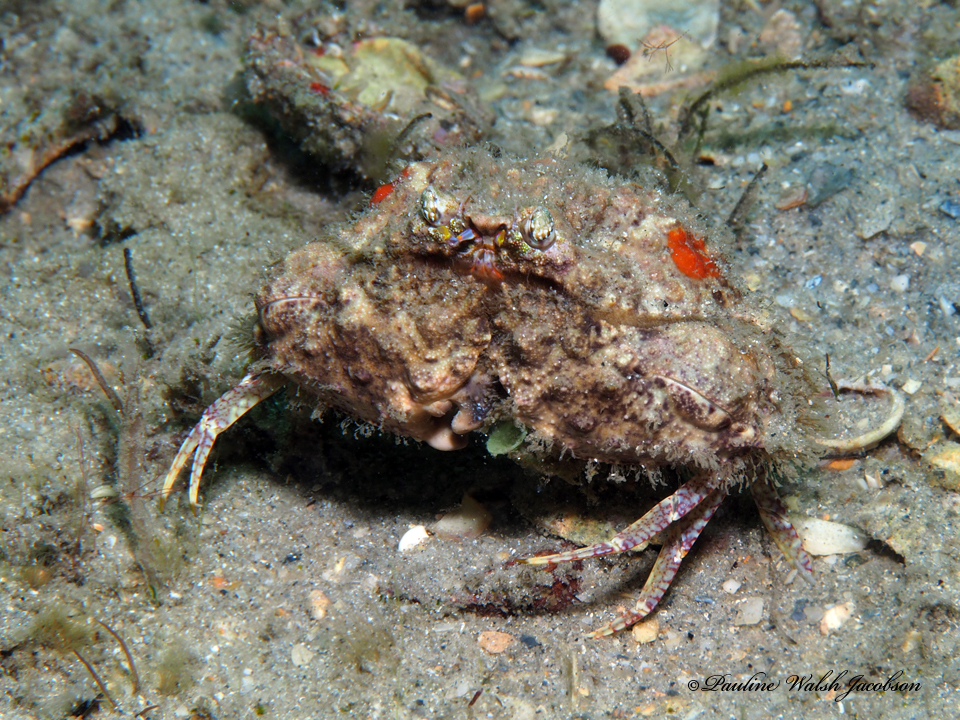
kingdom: Animalia
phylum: Arthropoda
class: Malacostraca
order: Decapoda
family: Calappidae
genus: Calappa
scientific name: Calappa galloides
